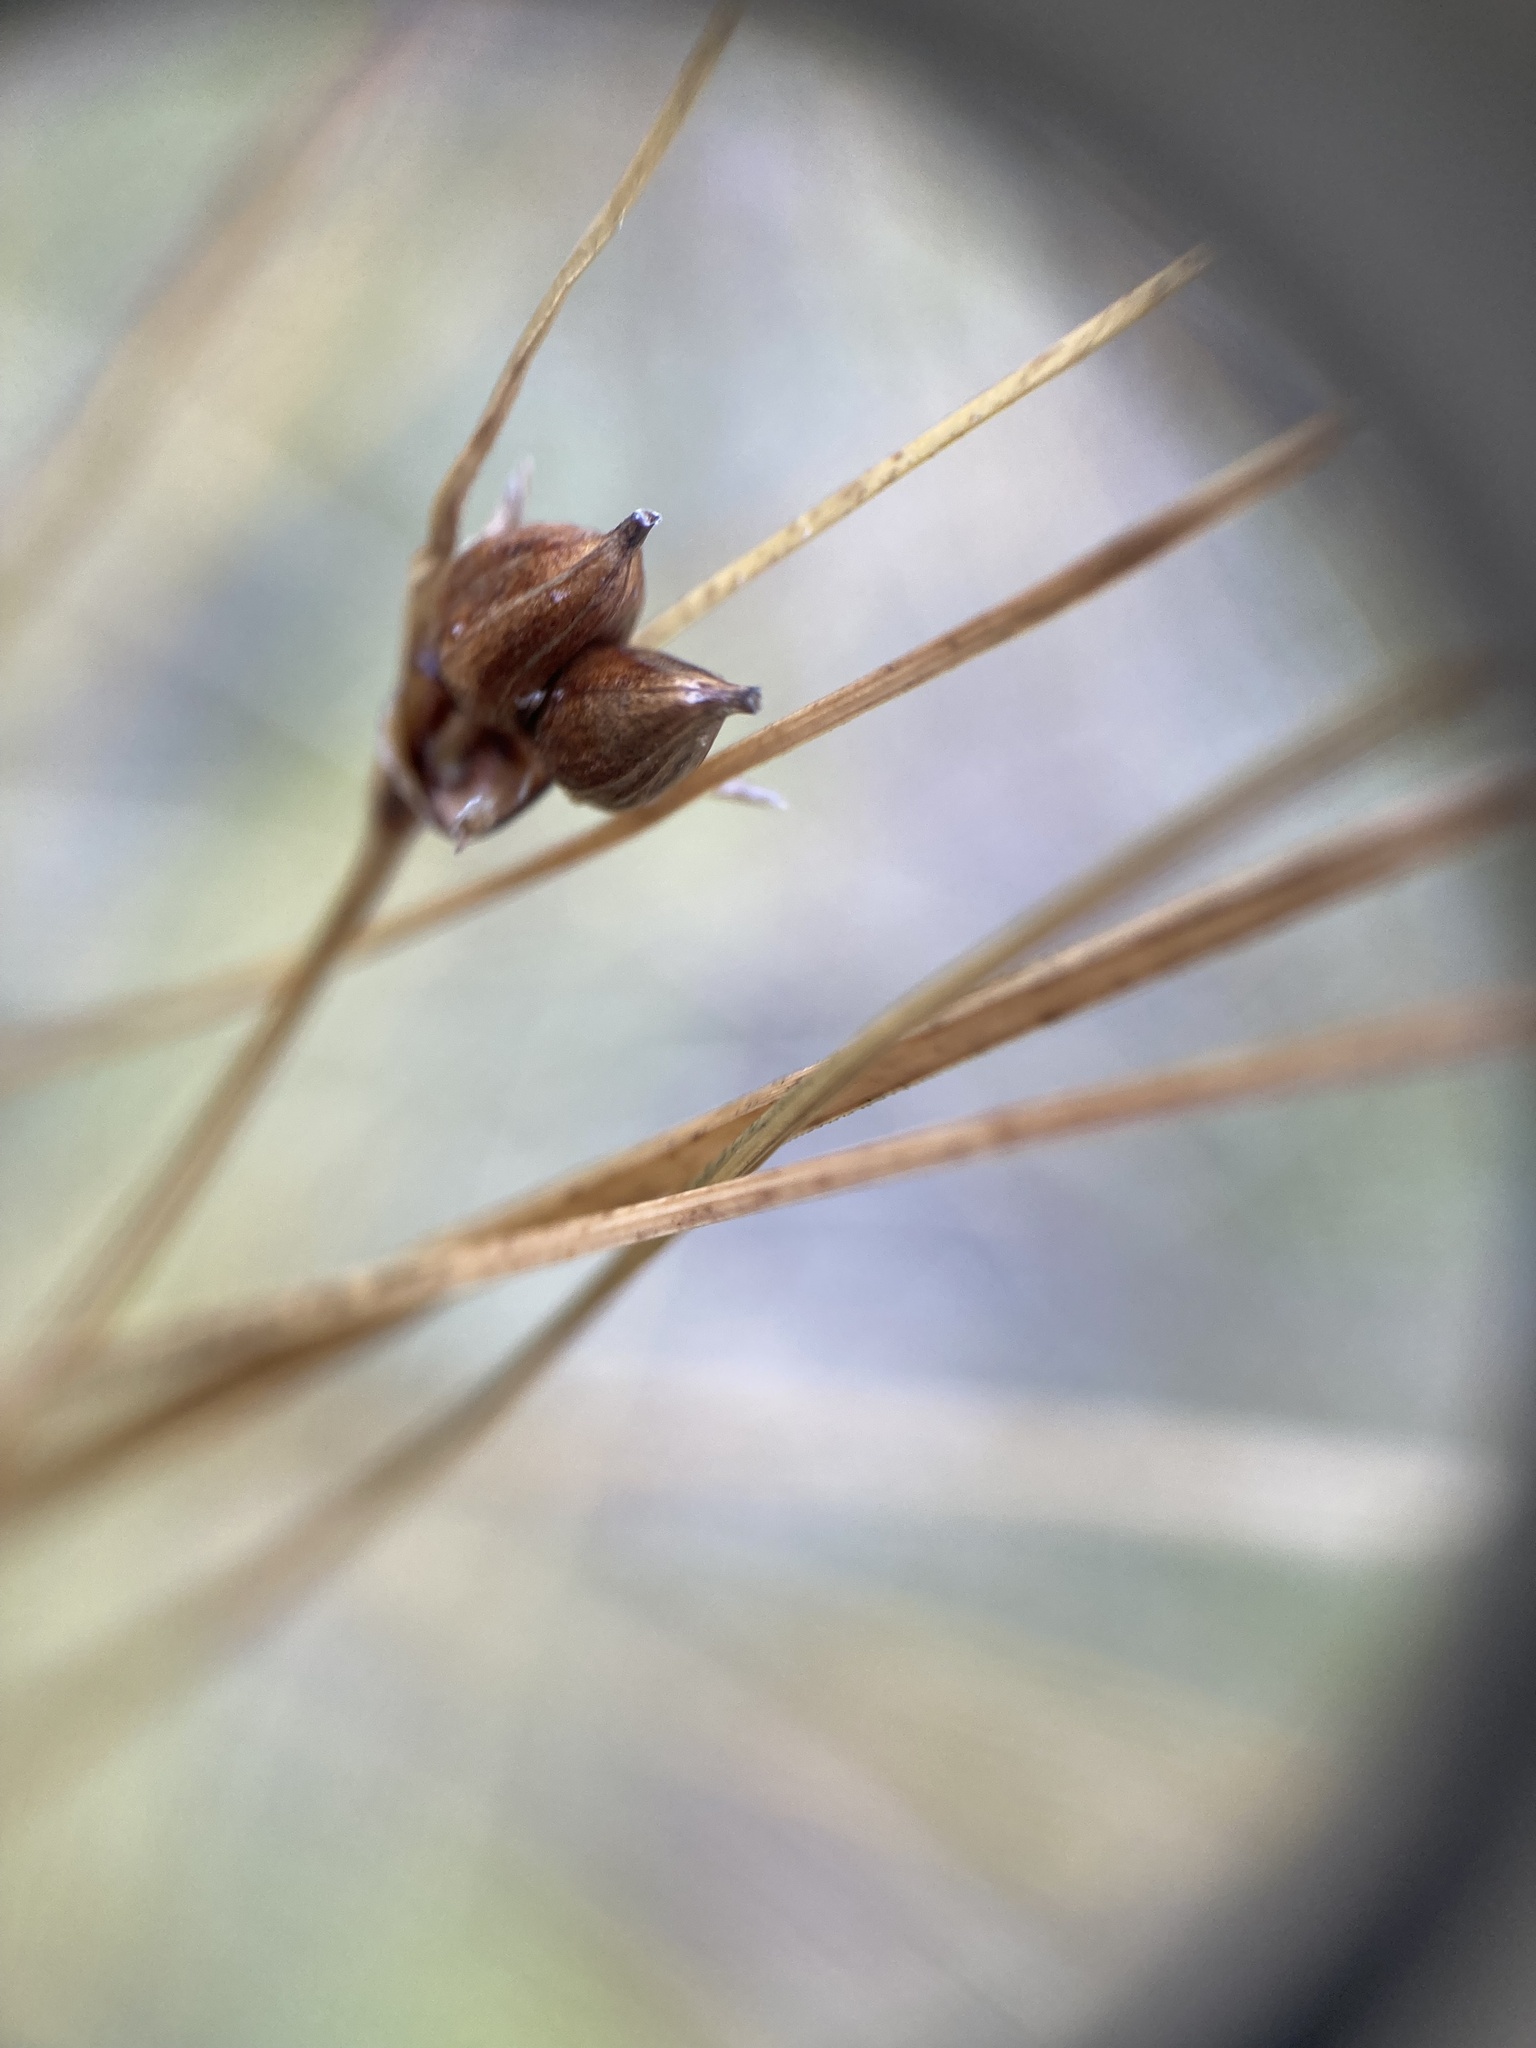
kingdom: Plantae
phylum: Tracheophyta
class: Liliopsida
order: Poales
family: Cyperaceae
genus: Carex
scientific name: Carex oligosperma
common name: Few-seed sedge
